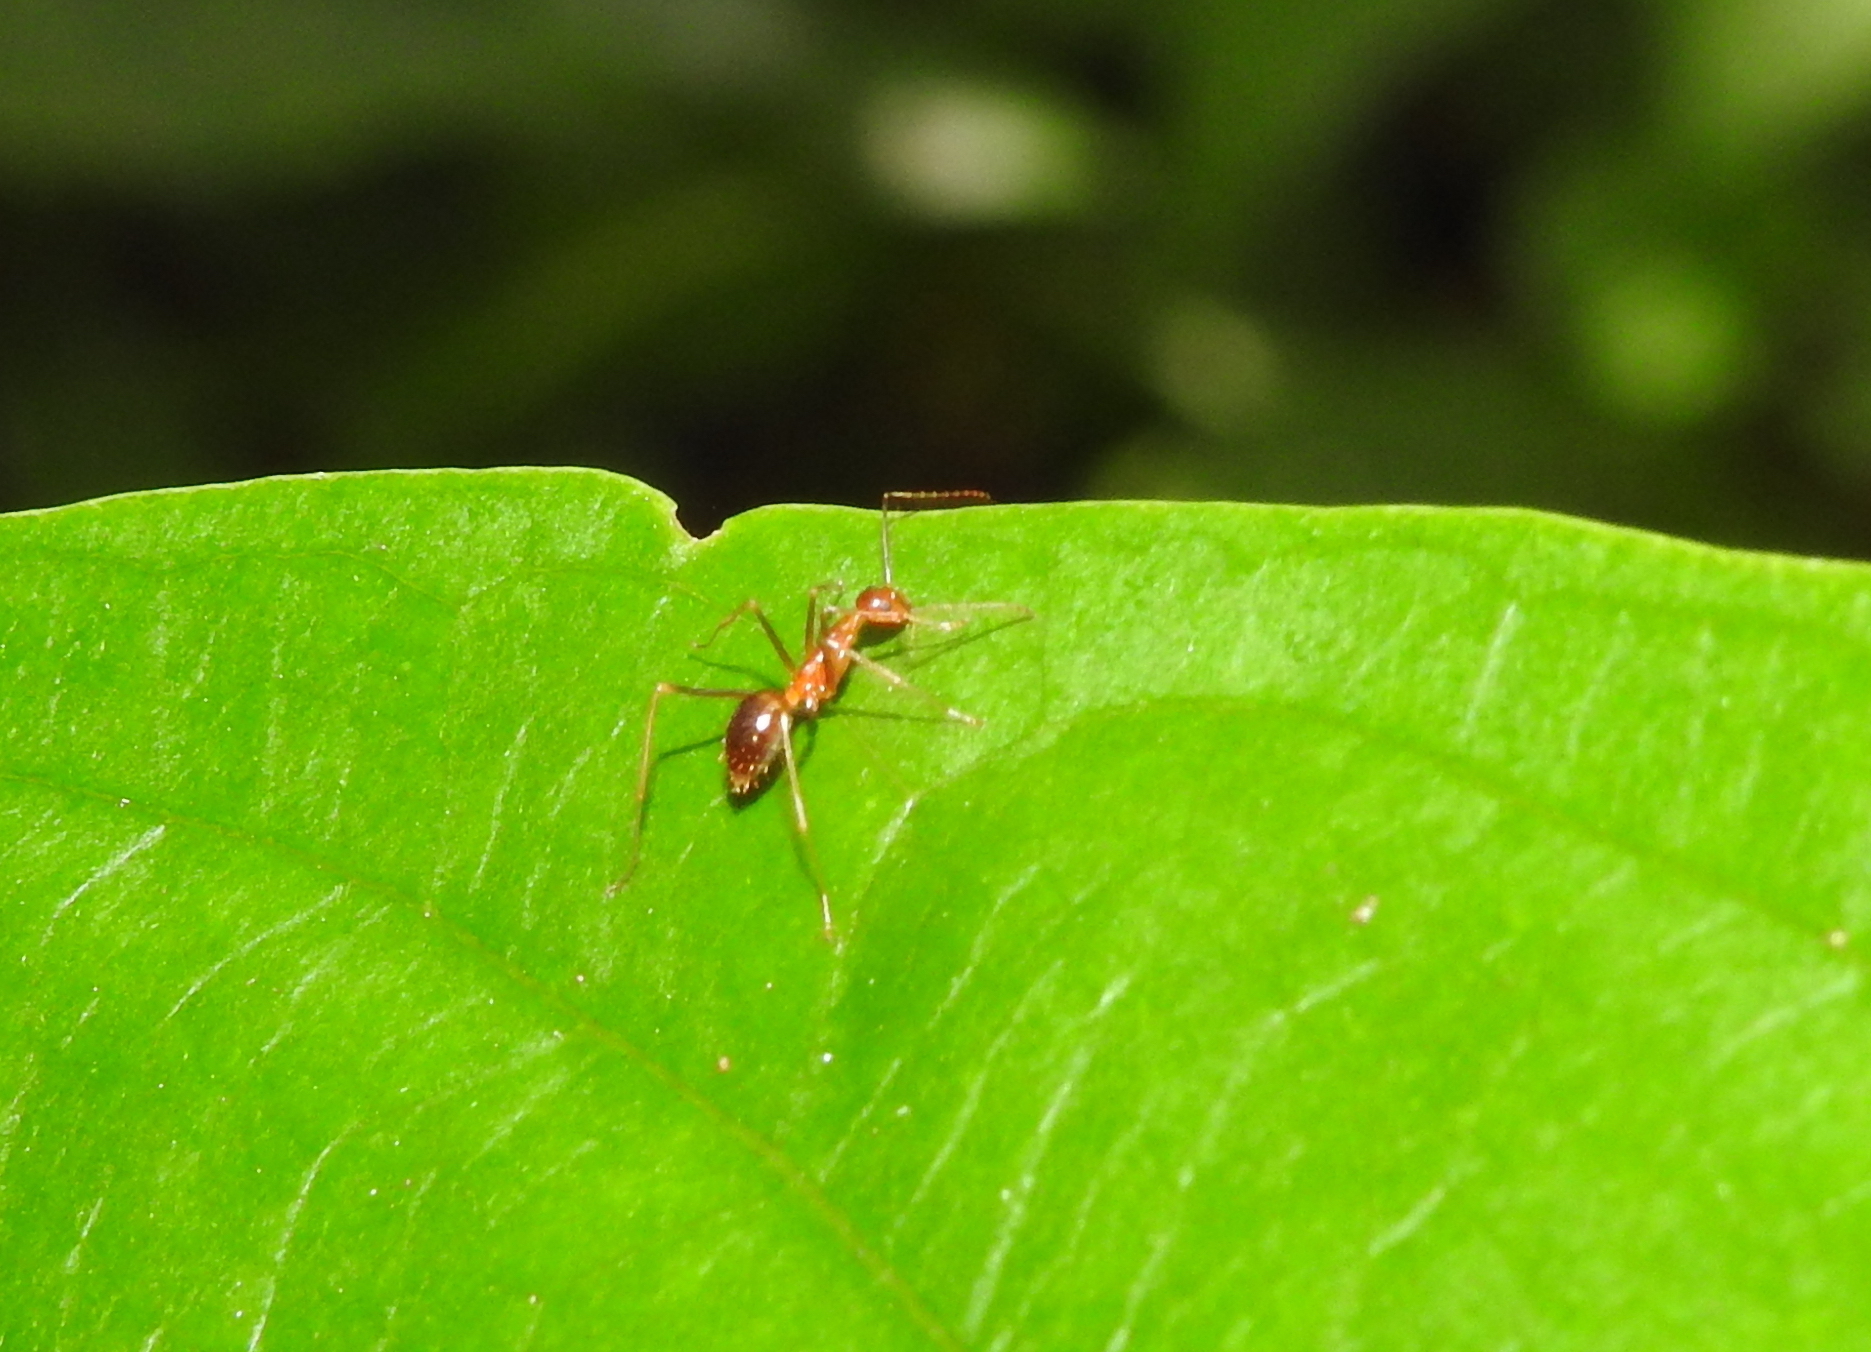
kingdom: Animalia
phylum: Arthropoda
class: Insecta
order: Hymenoptera
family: Formicidae
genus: Anoplolepis
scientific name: Anoplolepis gracilipes
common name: Ant
